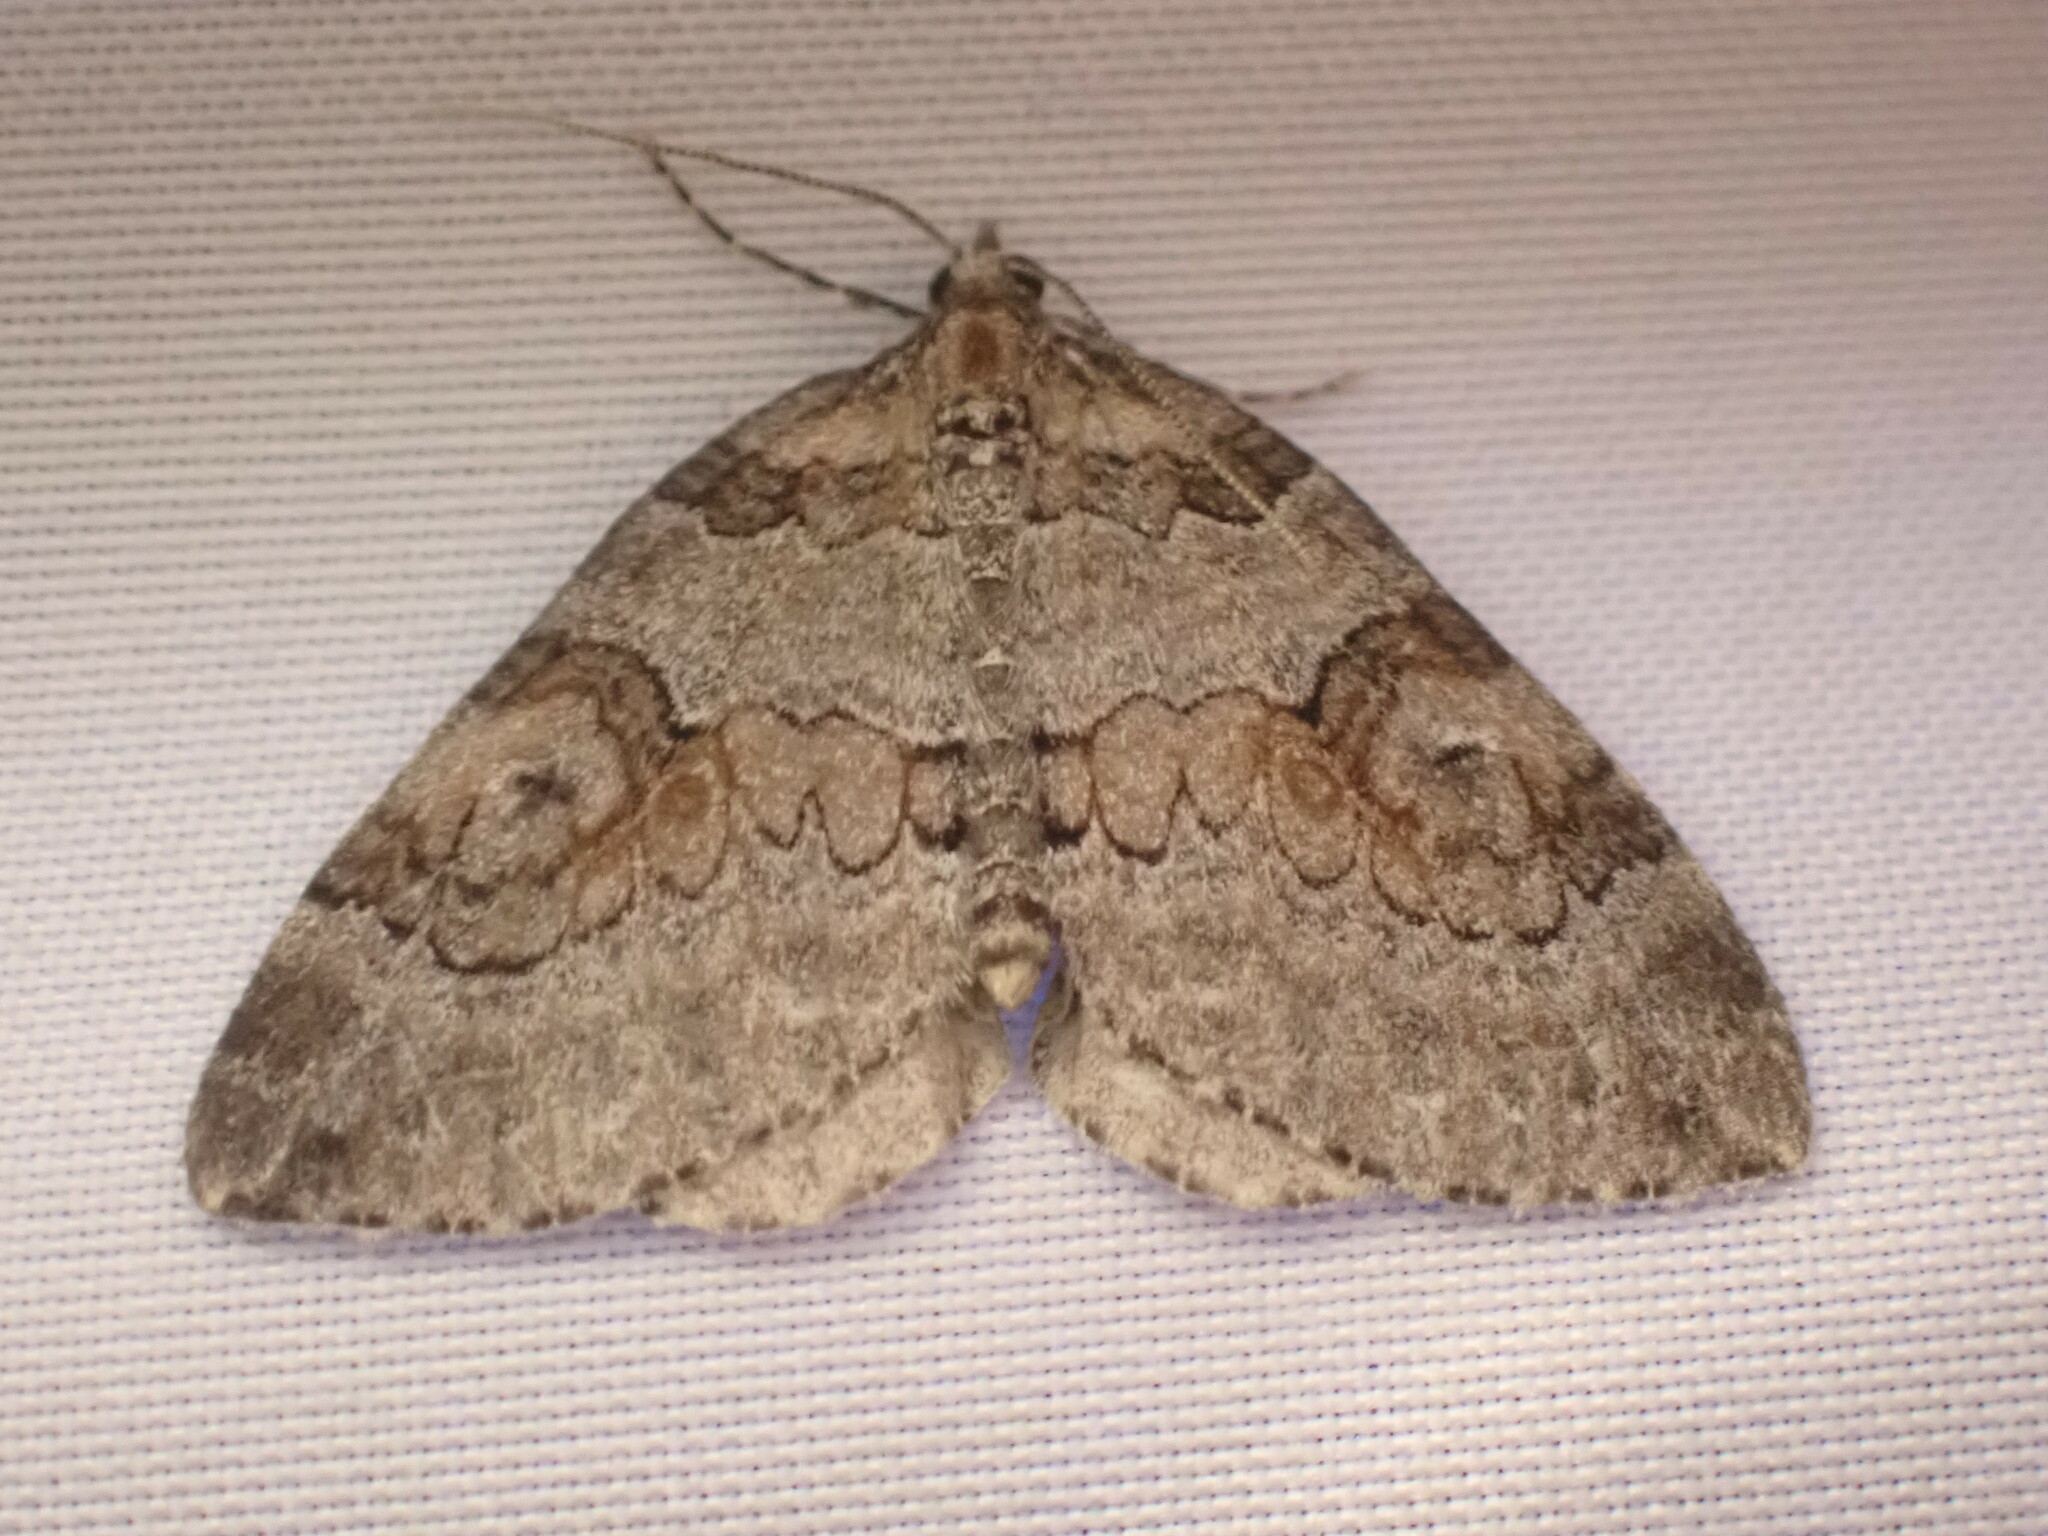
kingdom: Animalia
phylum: Arthropoda
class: Insecta
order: Lepidoptera
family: Geometridae
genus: Plemyria
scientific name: Plemyria georgii
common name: George's carpet moth
